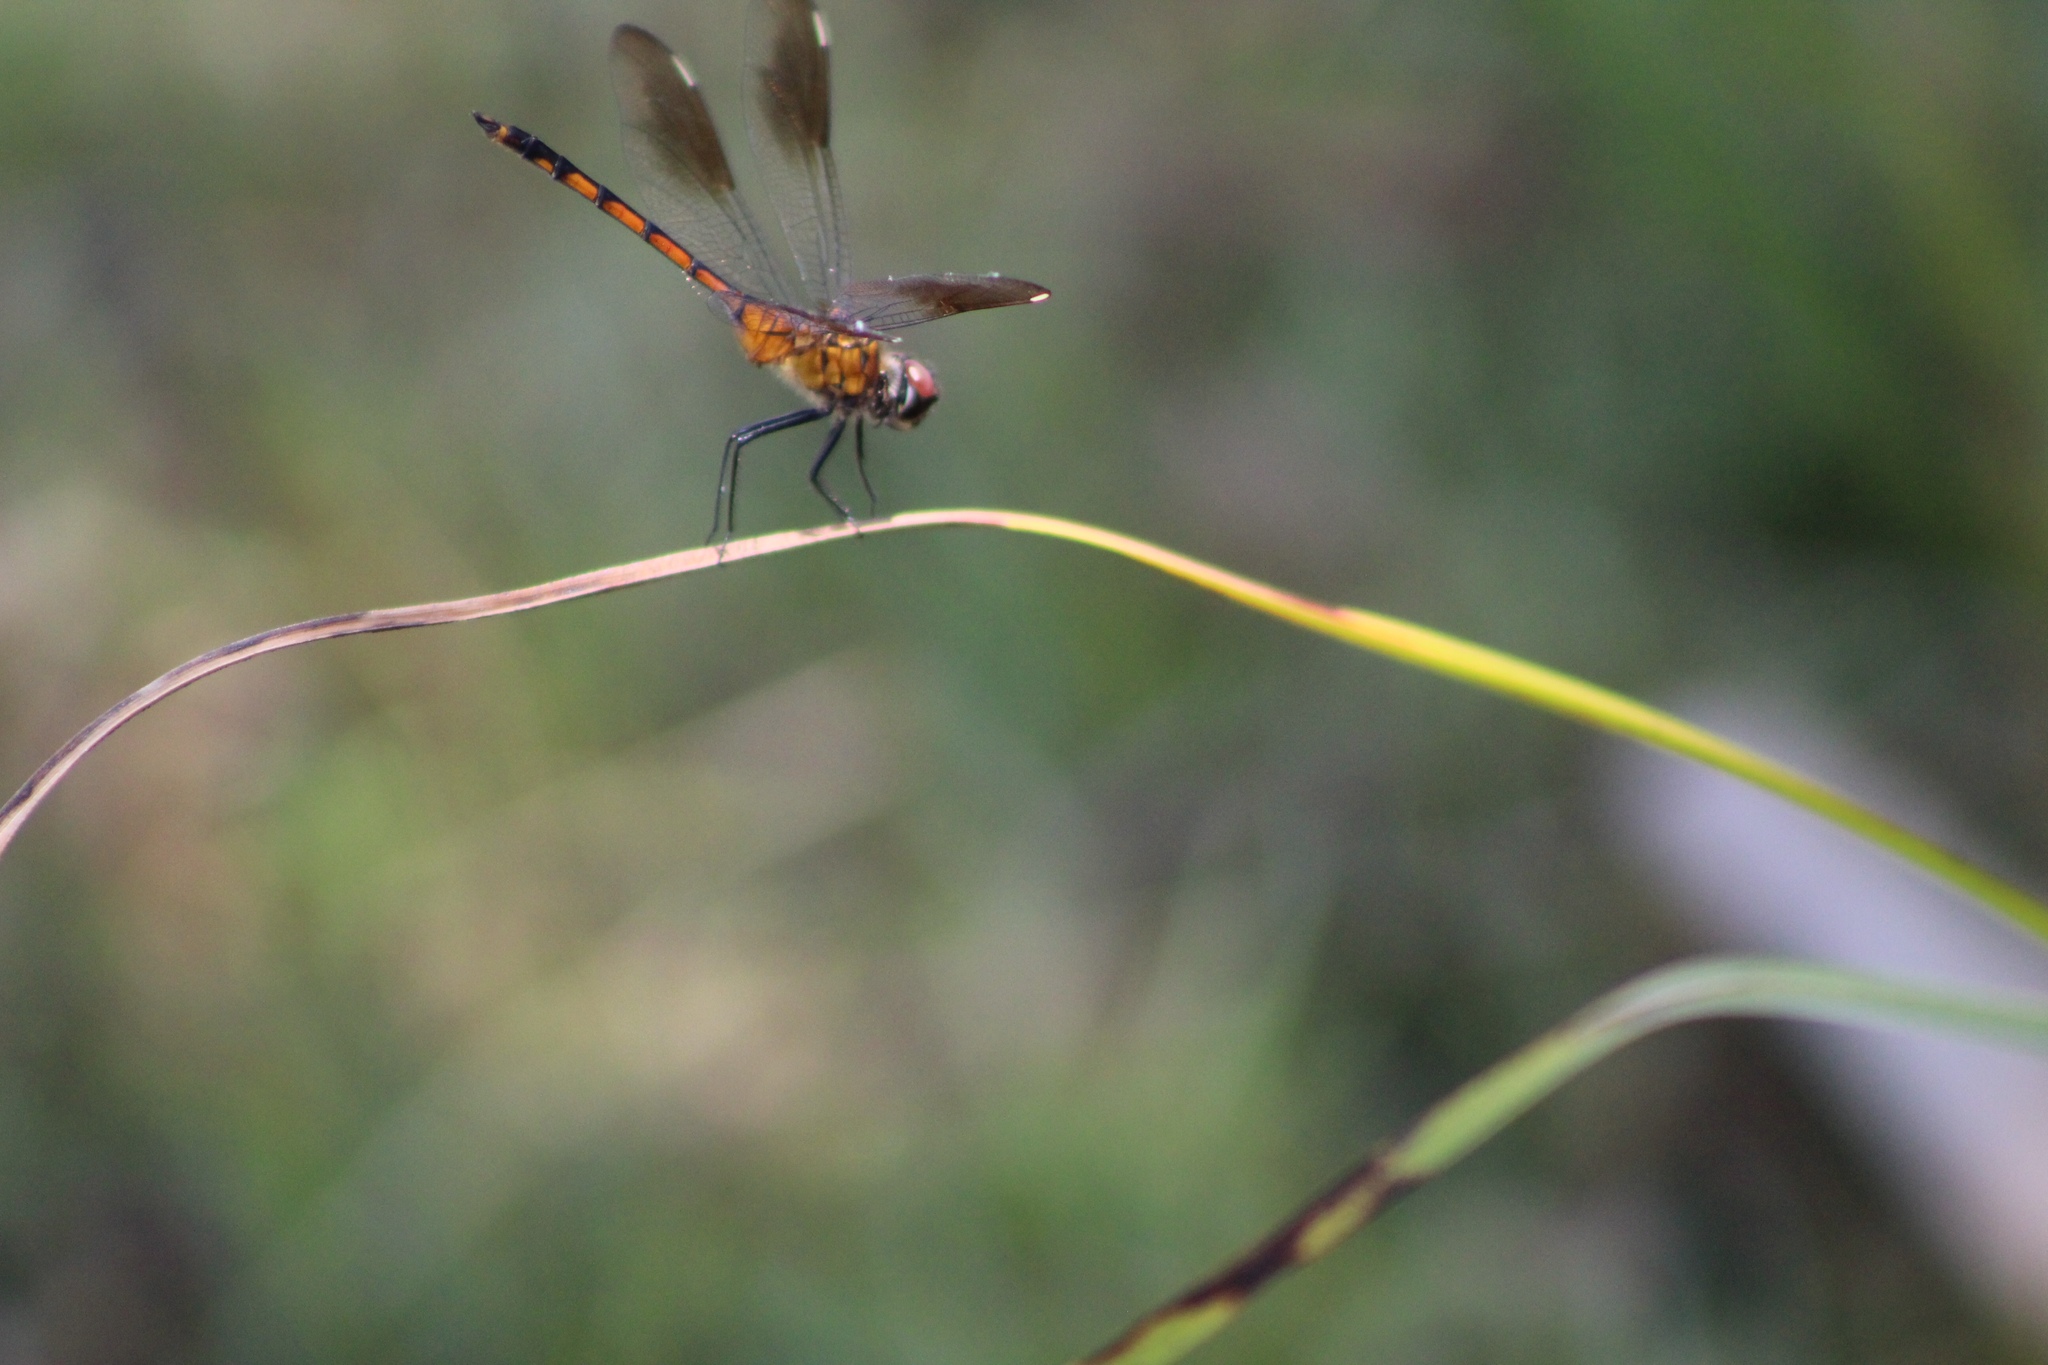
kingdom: Animalia
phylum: Arthropoda
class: Insecta
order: Odonata
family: Libellulidae
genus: Brachymesia
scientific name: Brachymesia gravida
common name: Four-spotted pennant
